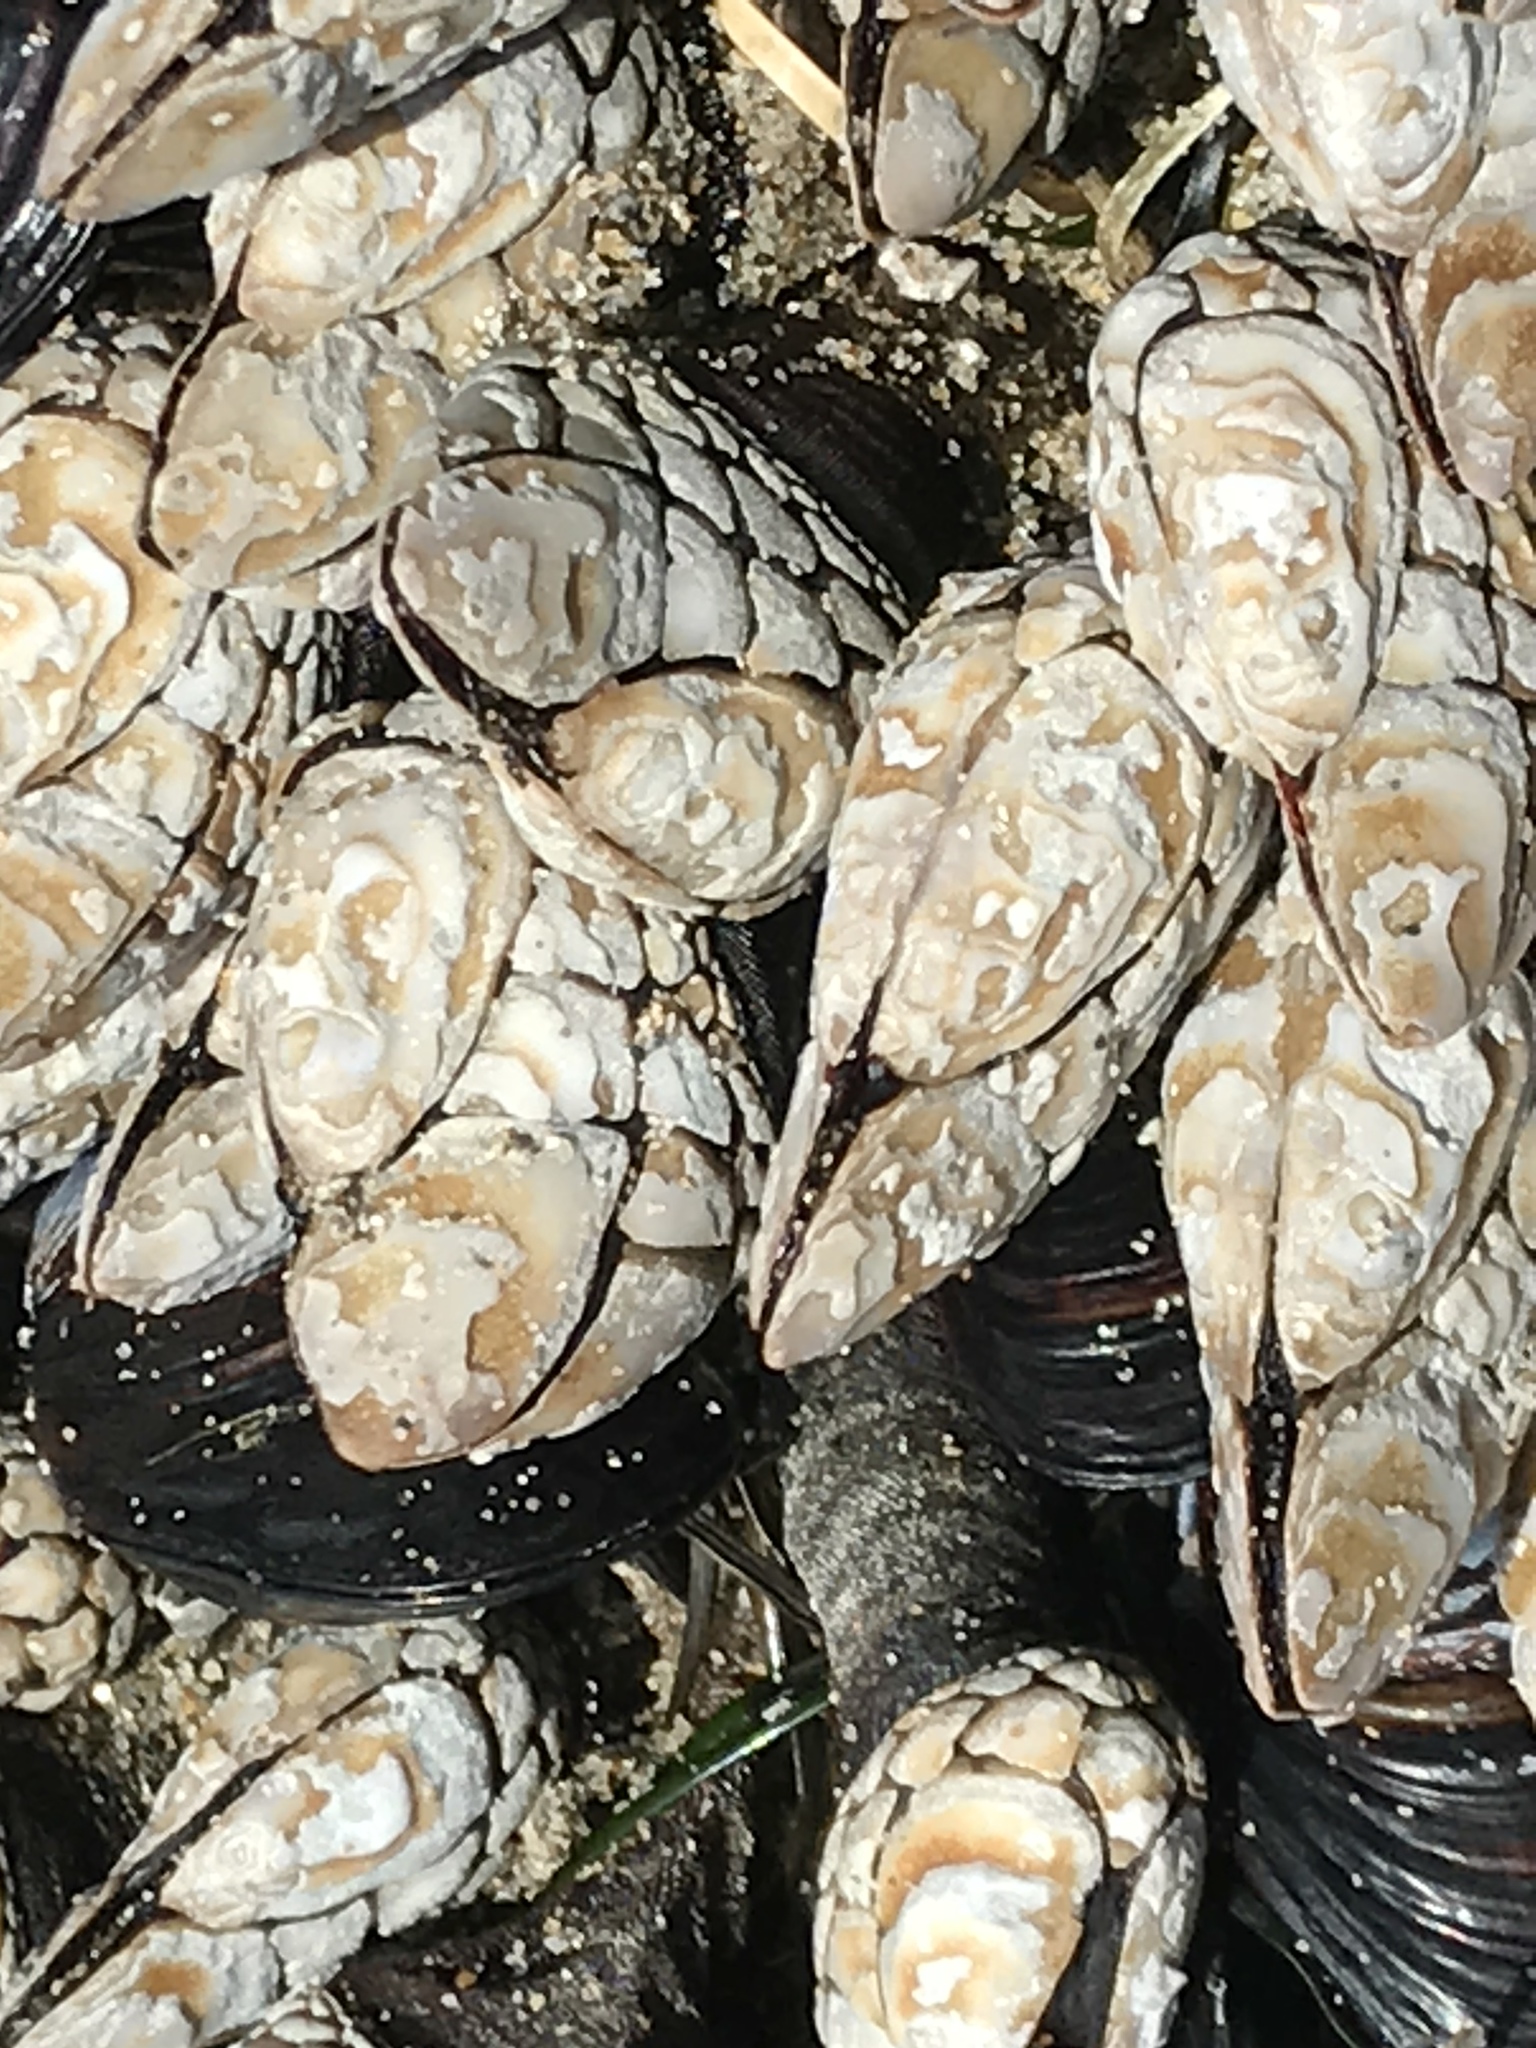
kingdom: Animalia
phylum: Arthropoda
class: Maxillopoda
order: Pedunculata
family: Pollicipedidae
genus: Pollicipes
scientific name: Pollicipes polymerus
